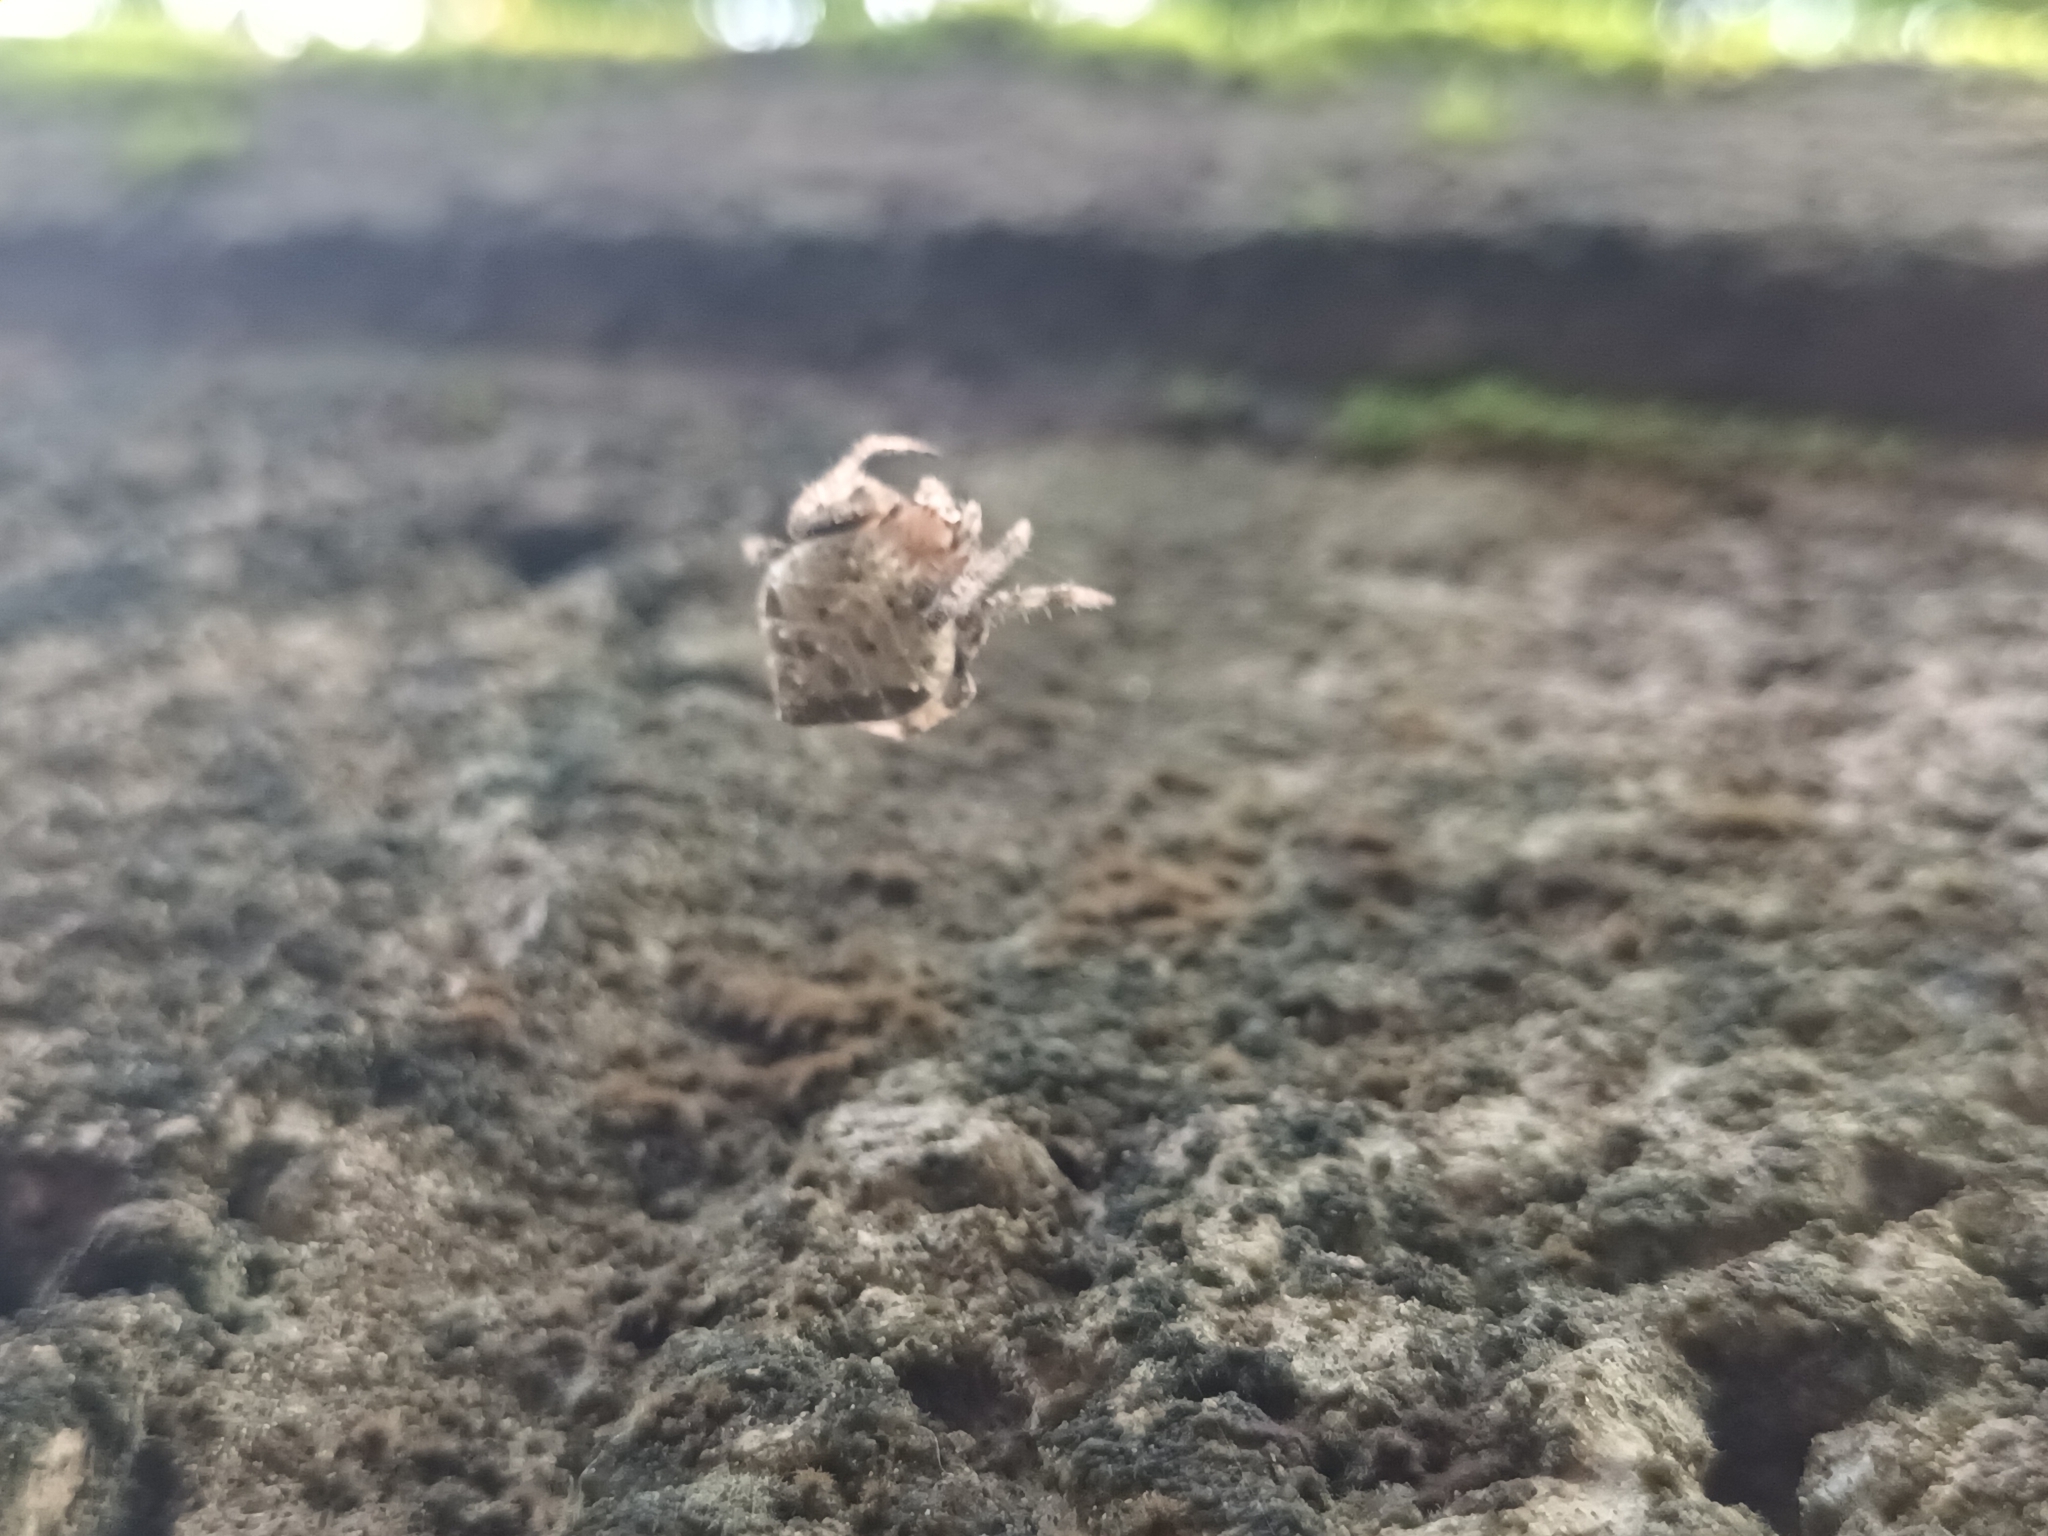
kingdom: Animalia
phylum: Arthropoda
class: Arachnida
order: Araneae
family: Araneidae
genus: Eriovixia
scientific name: Eriovixia laglaizei
